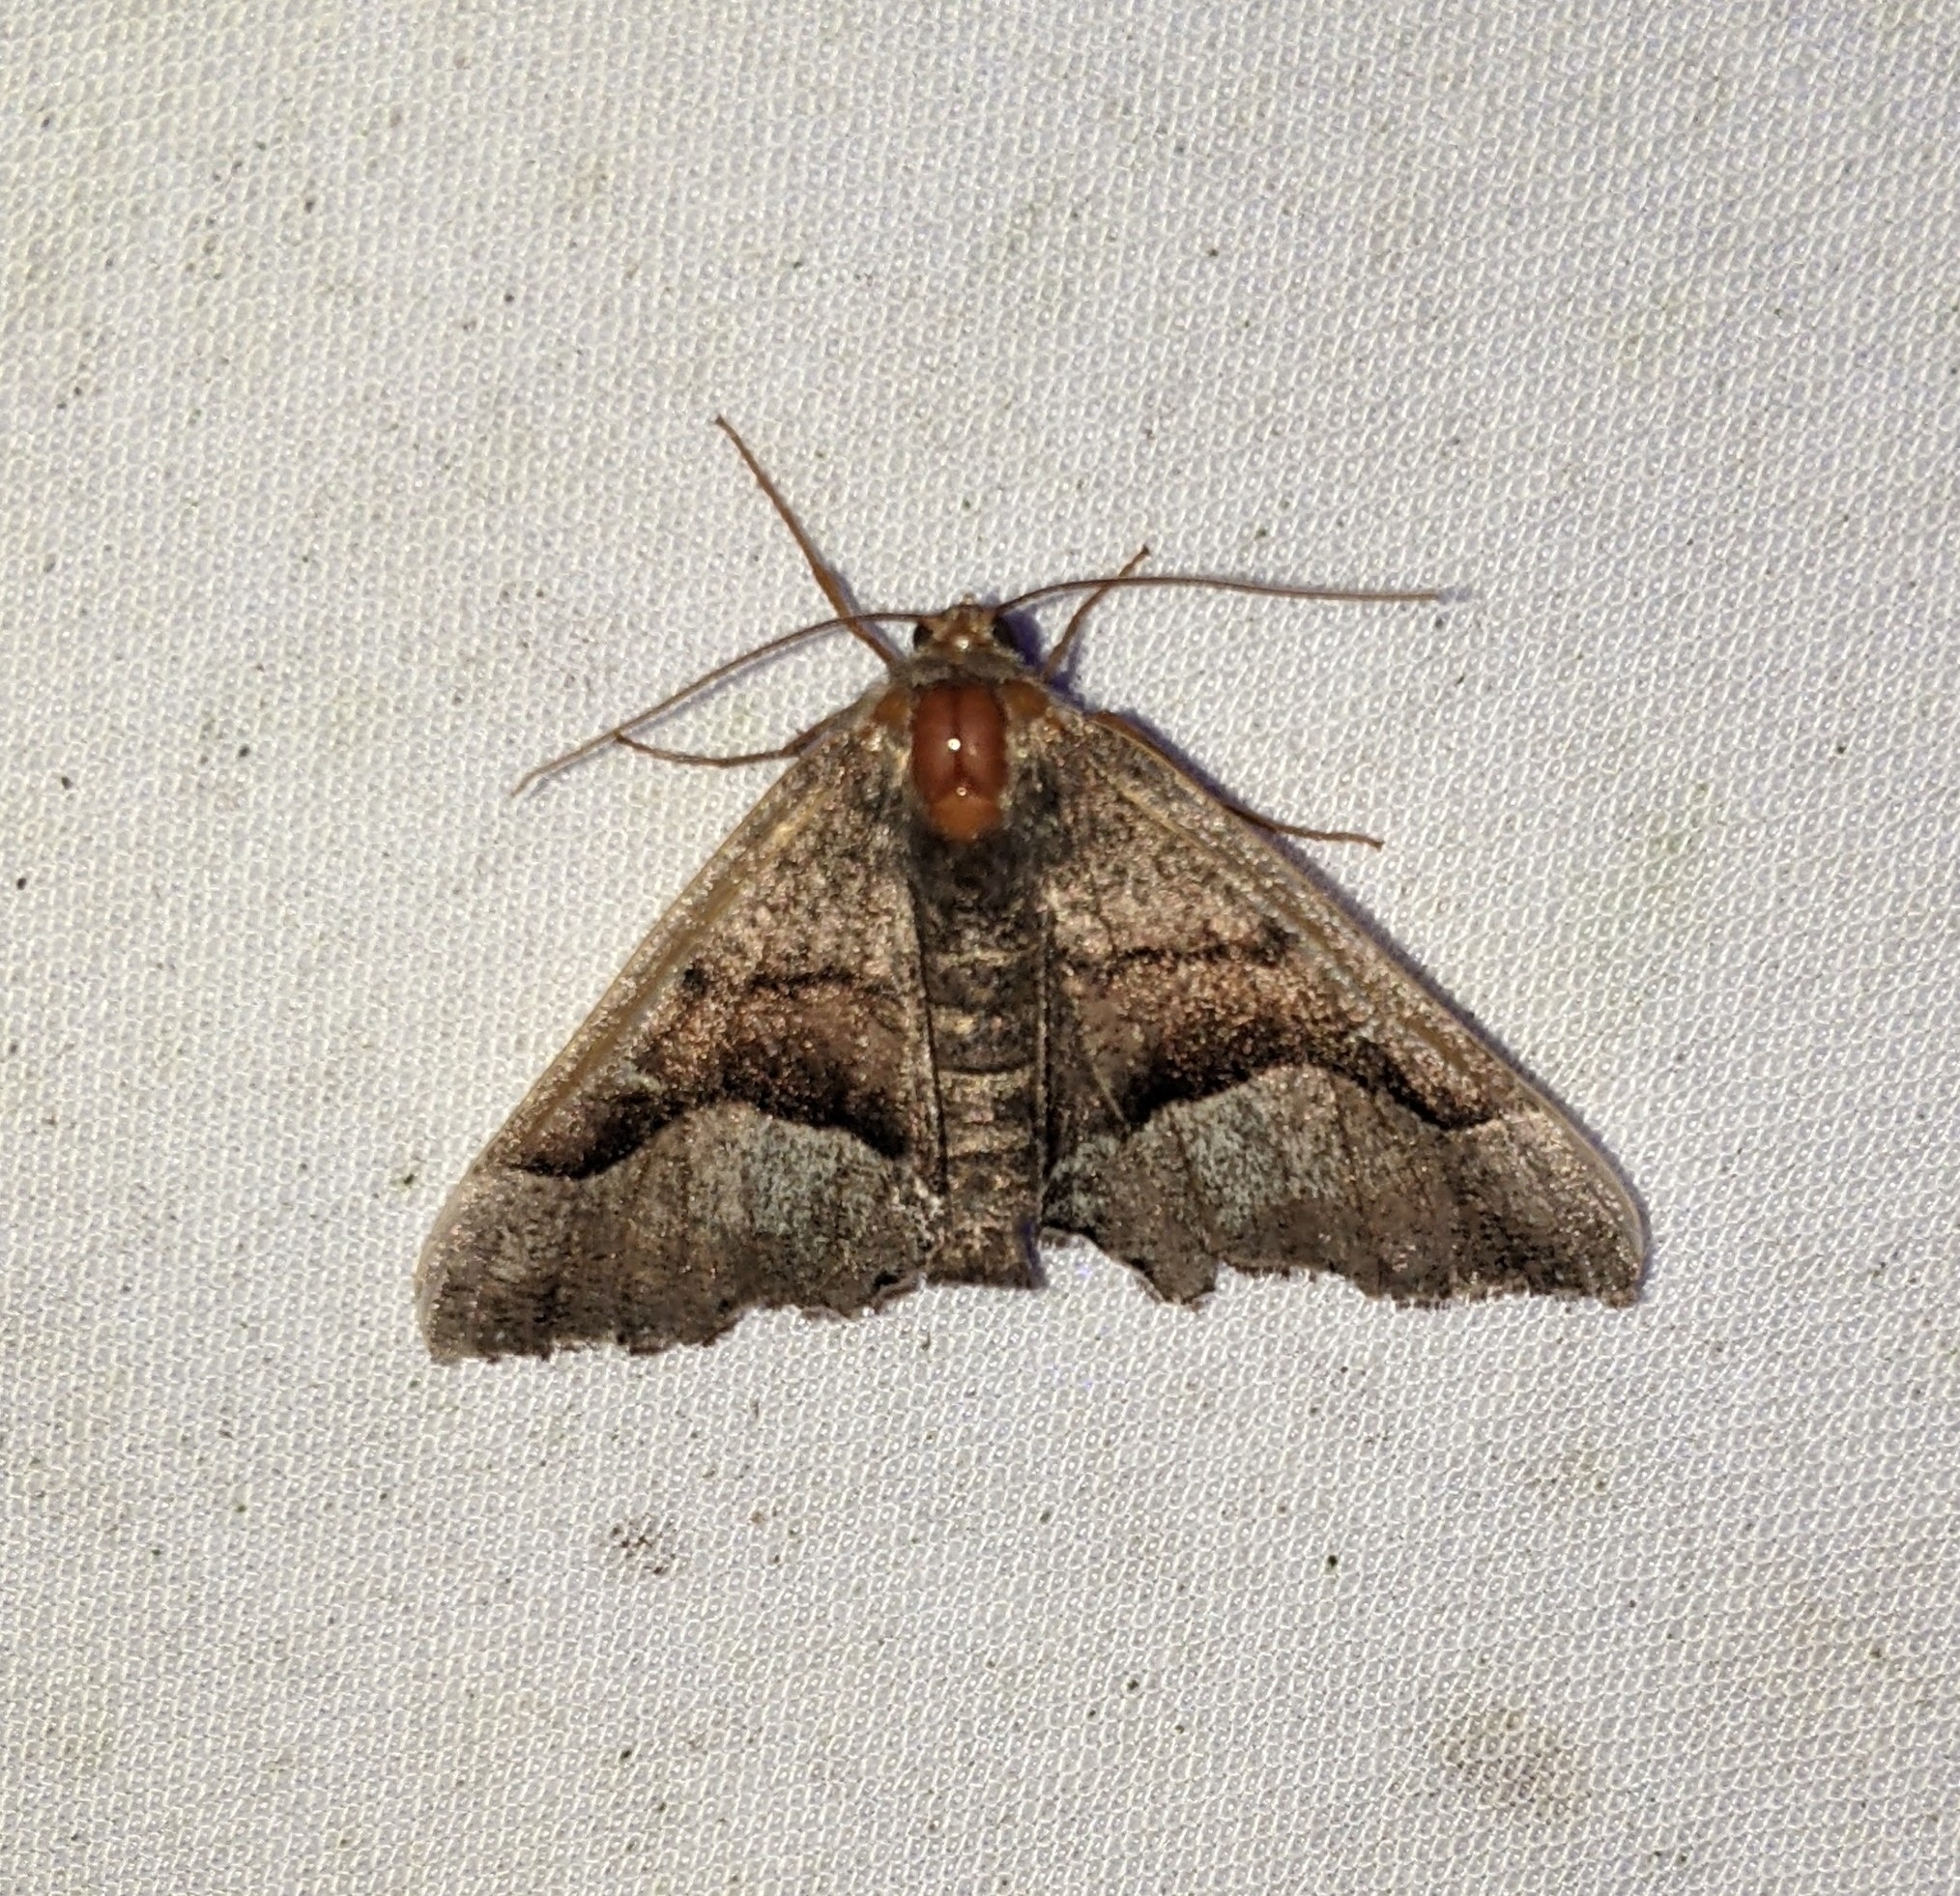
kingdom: Animalia
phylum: Arthropoda
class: Insecta
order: Lepidoptera
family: Geometridae
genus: Pero
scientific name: Pero behrensaria
